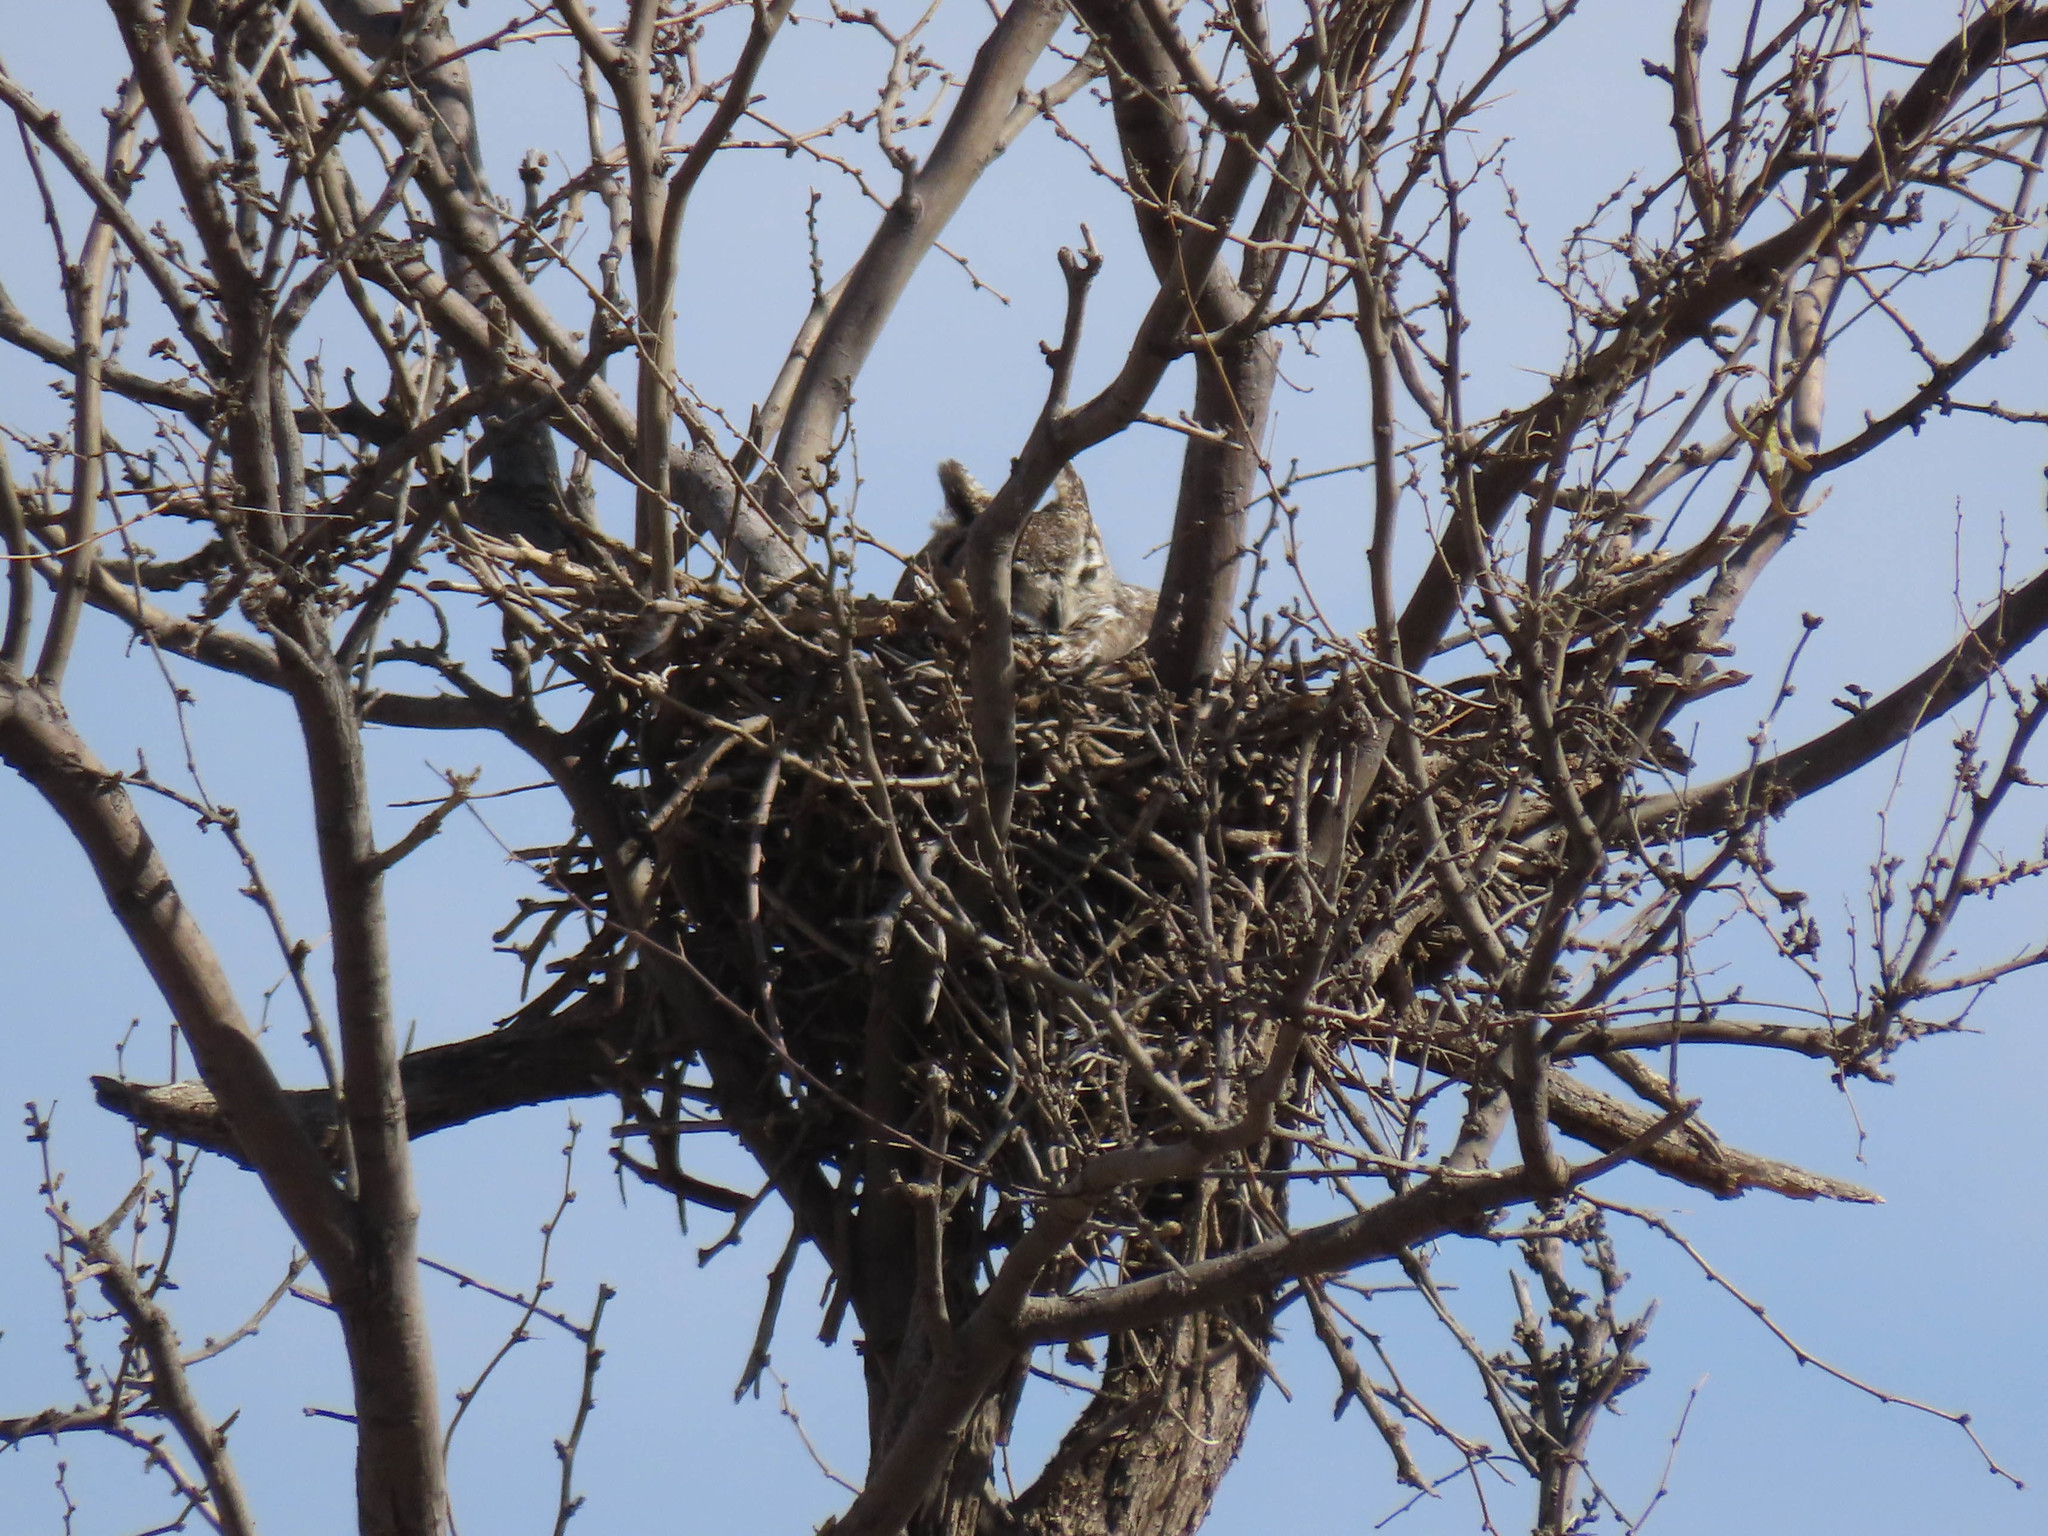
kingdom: Animalia
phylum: Chordata
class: Aves
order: Strigiformes
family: Strigidae
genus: Bubo
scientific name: Bubo virginianus
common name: Great horned owl
